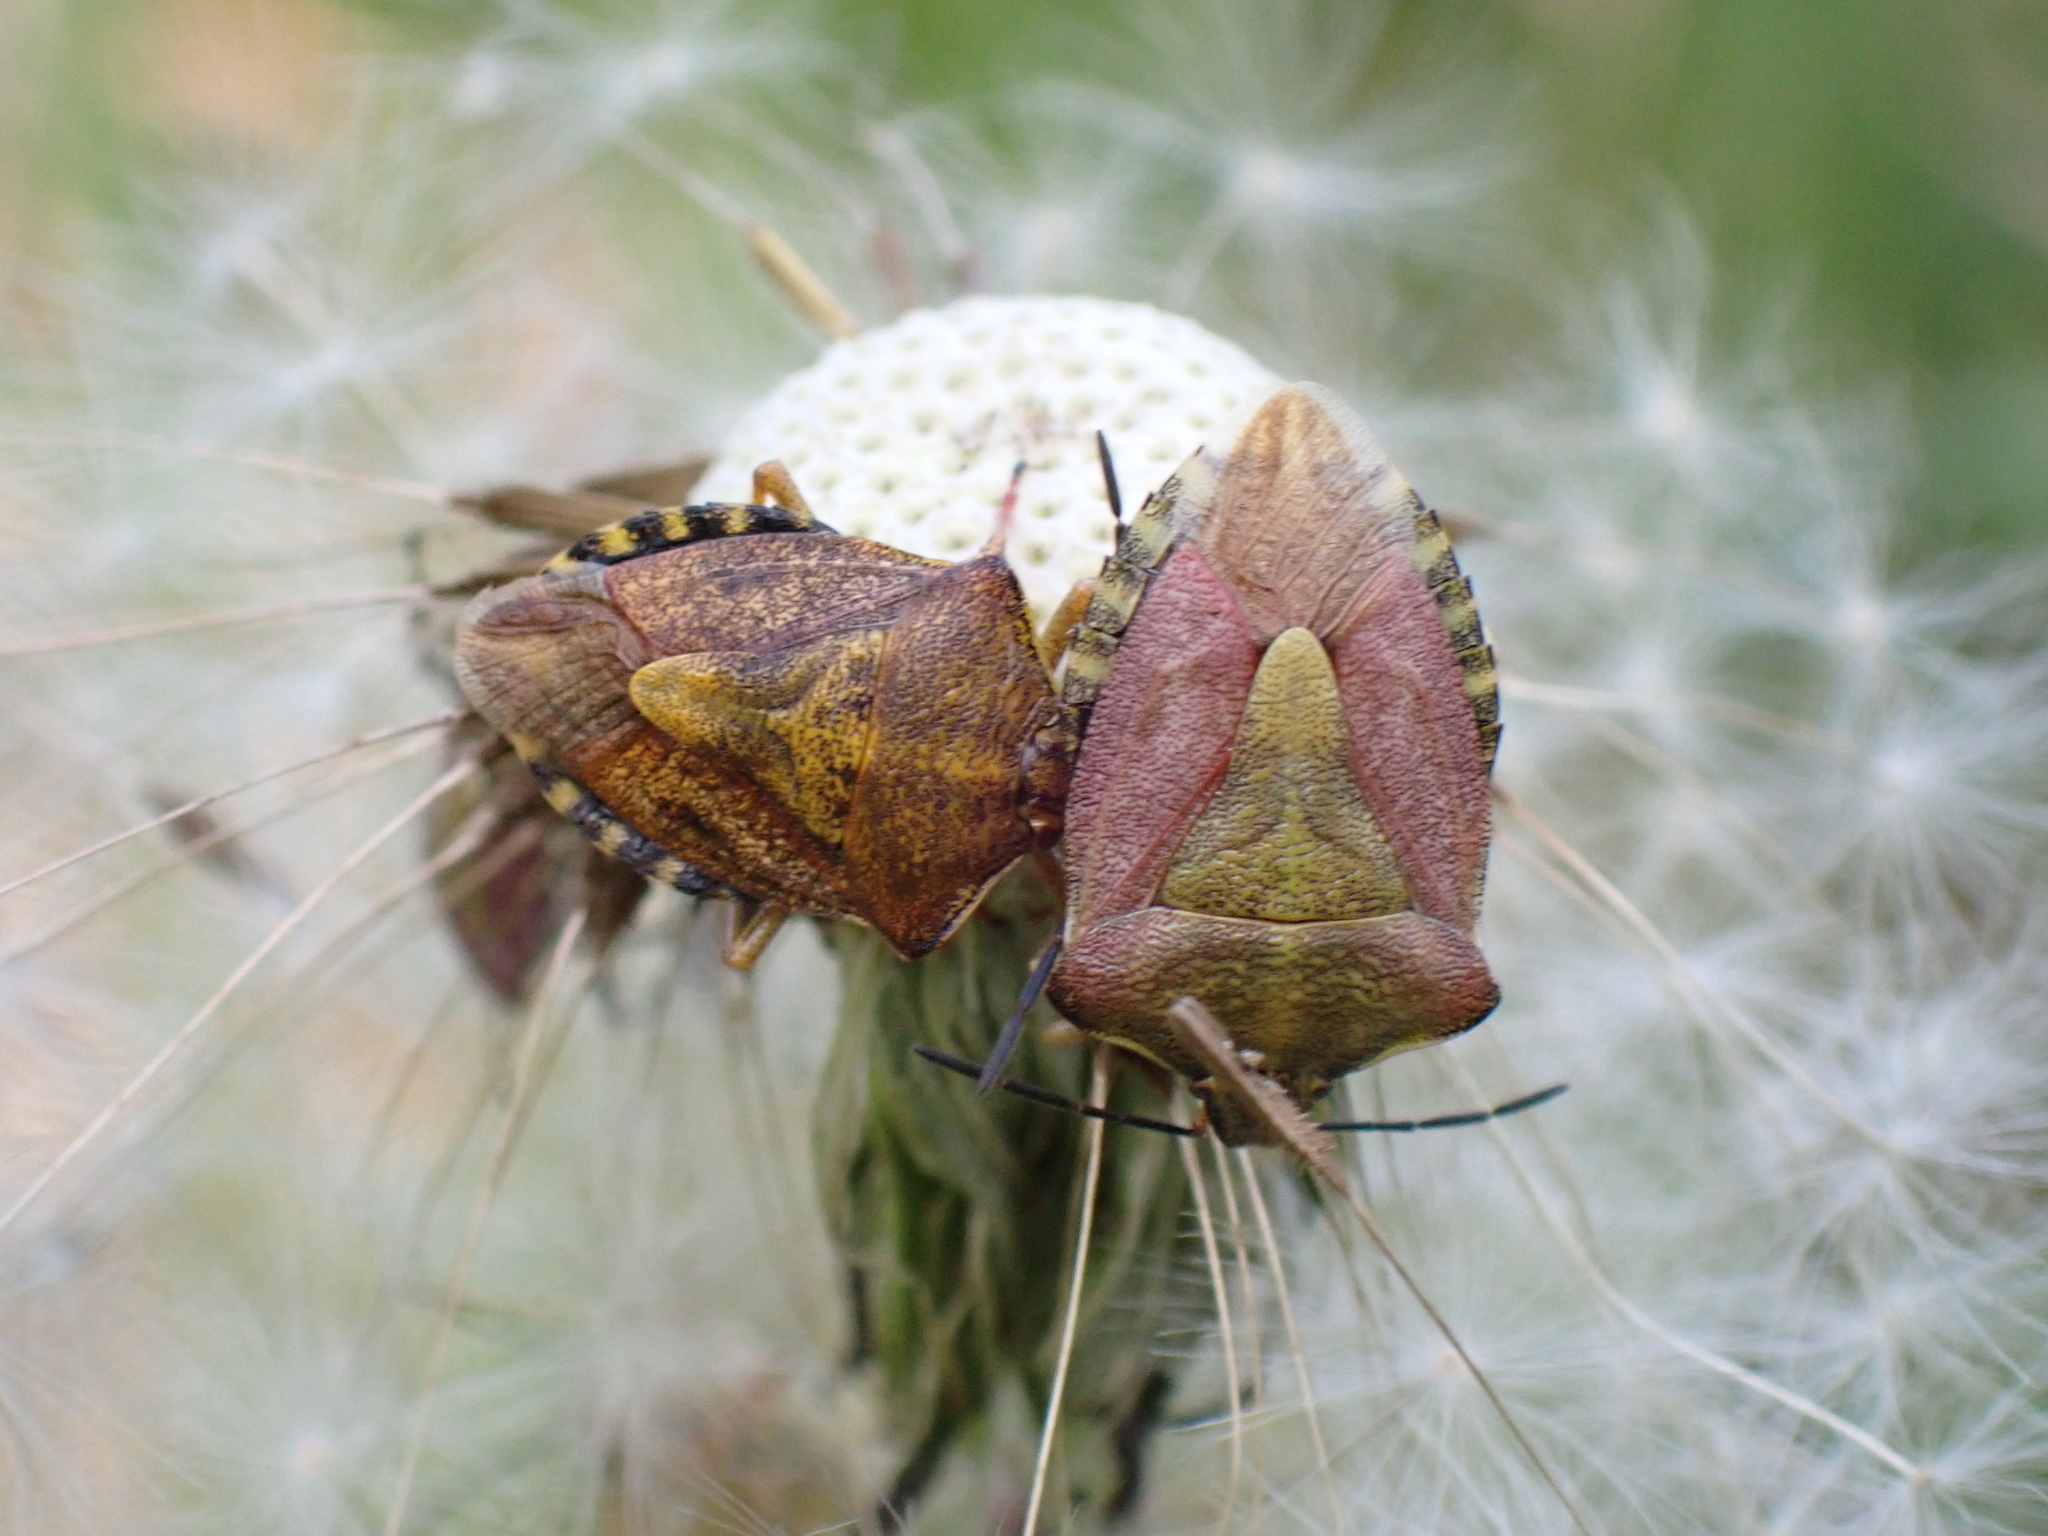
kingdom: Animalia
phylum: Arthropoda
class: Insecta
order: Hemiptera
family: Pentatomidae
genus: Carpocoris
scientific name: Carpocoris purpureipennis
